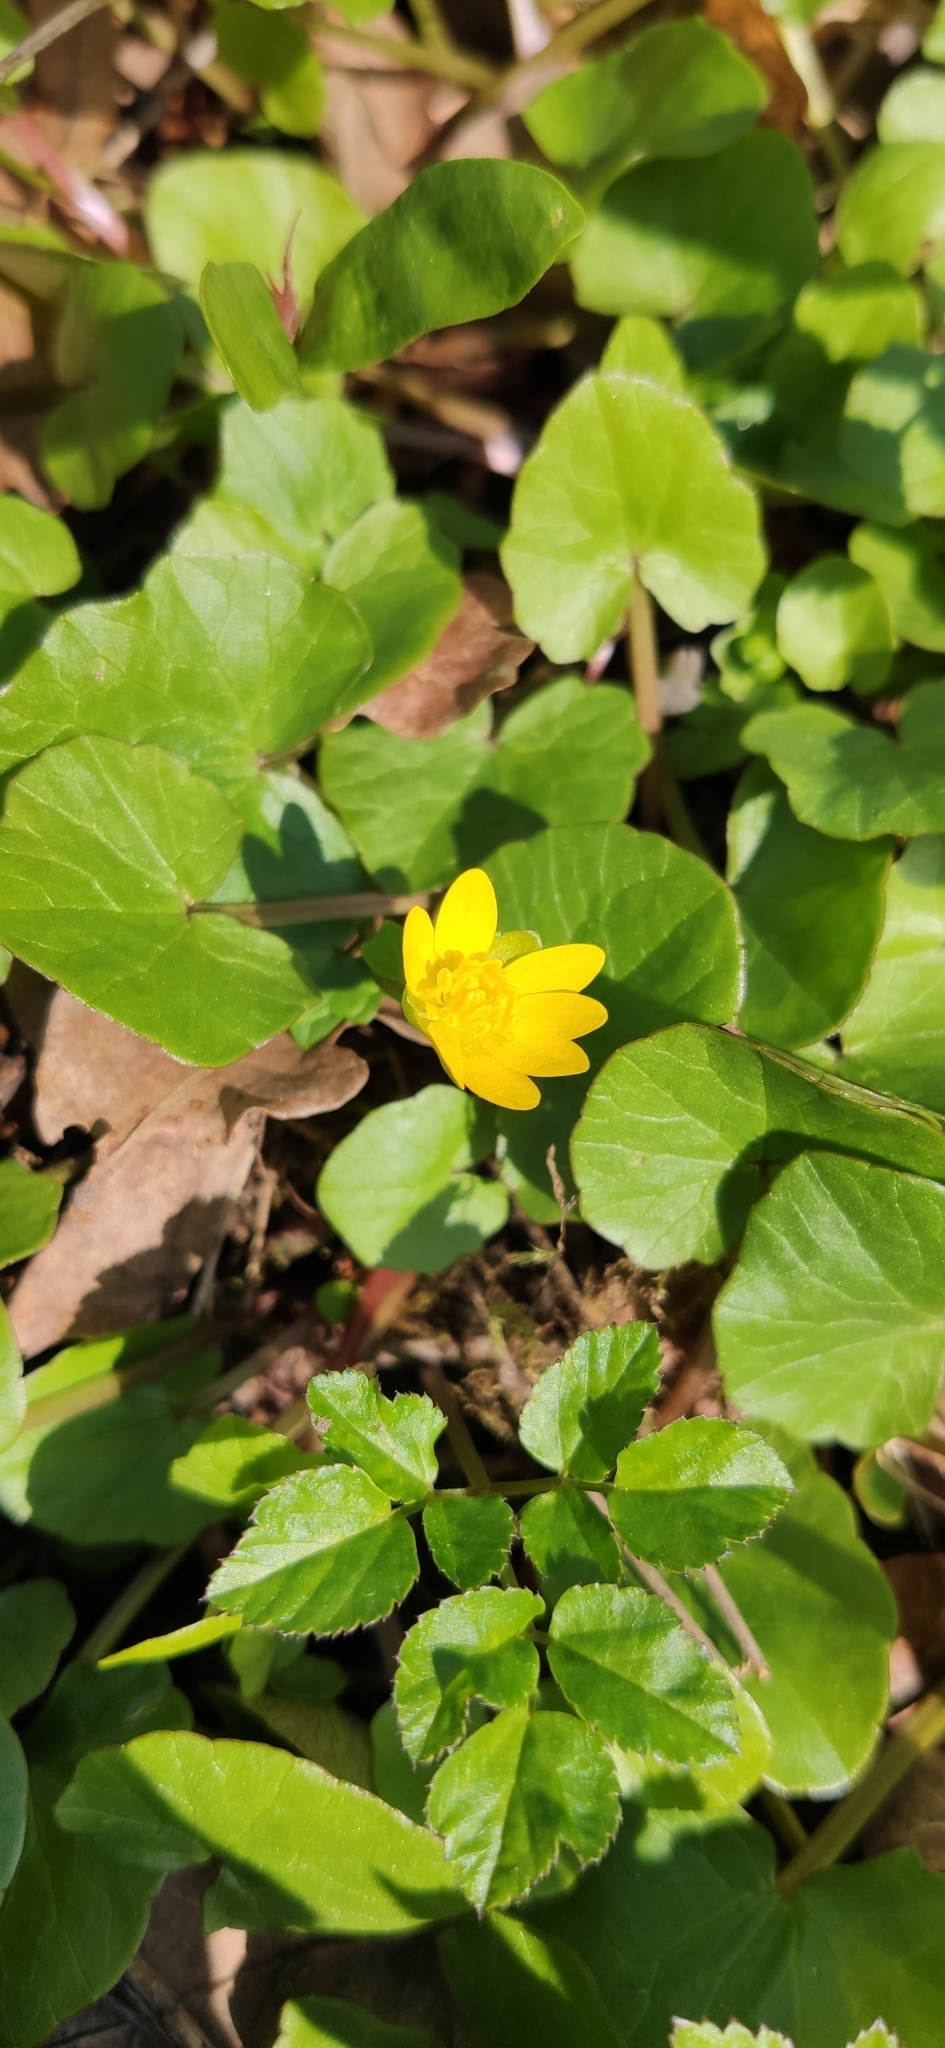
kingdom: Plantae
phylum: Tracheophyta
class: Magnoliopsida
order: Ranunculales
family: Ranunculaceae
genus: Ficaria
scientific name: Ficaria verna
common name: Lesser celandine
